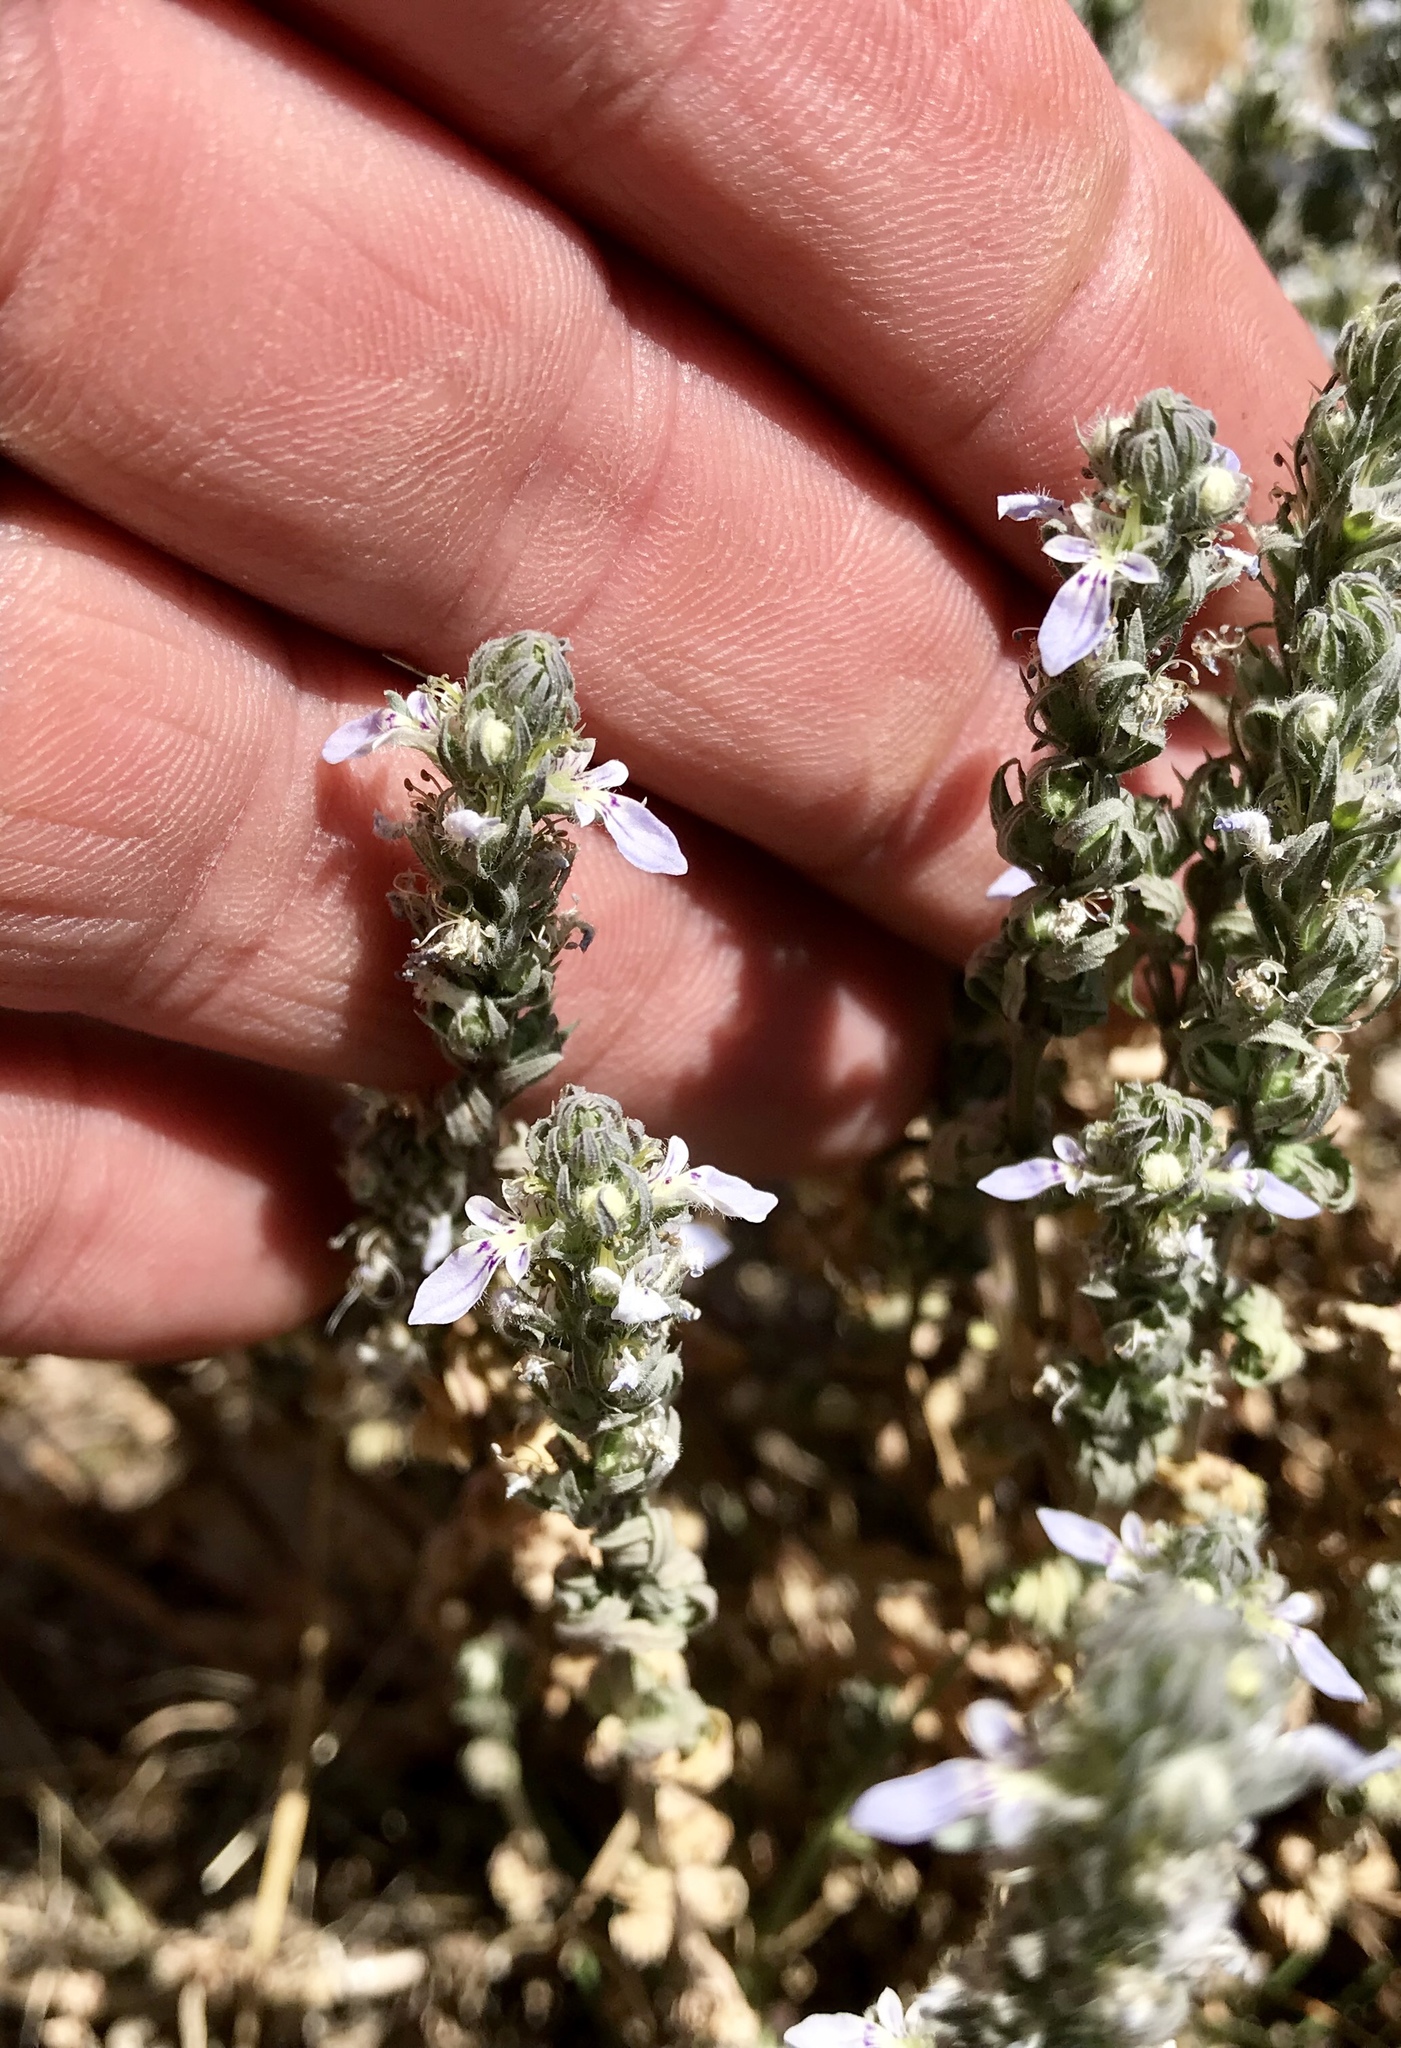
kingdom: Plantae
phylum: Tracheophyta
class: Magnoliopsida
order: Lamiales
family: Lamiaceae
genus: Teucrium
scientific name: Teucrium cubense
